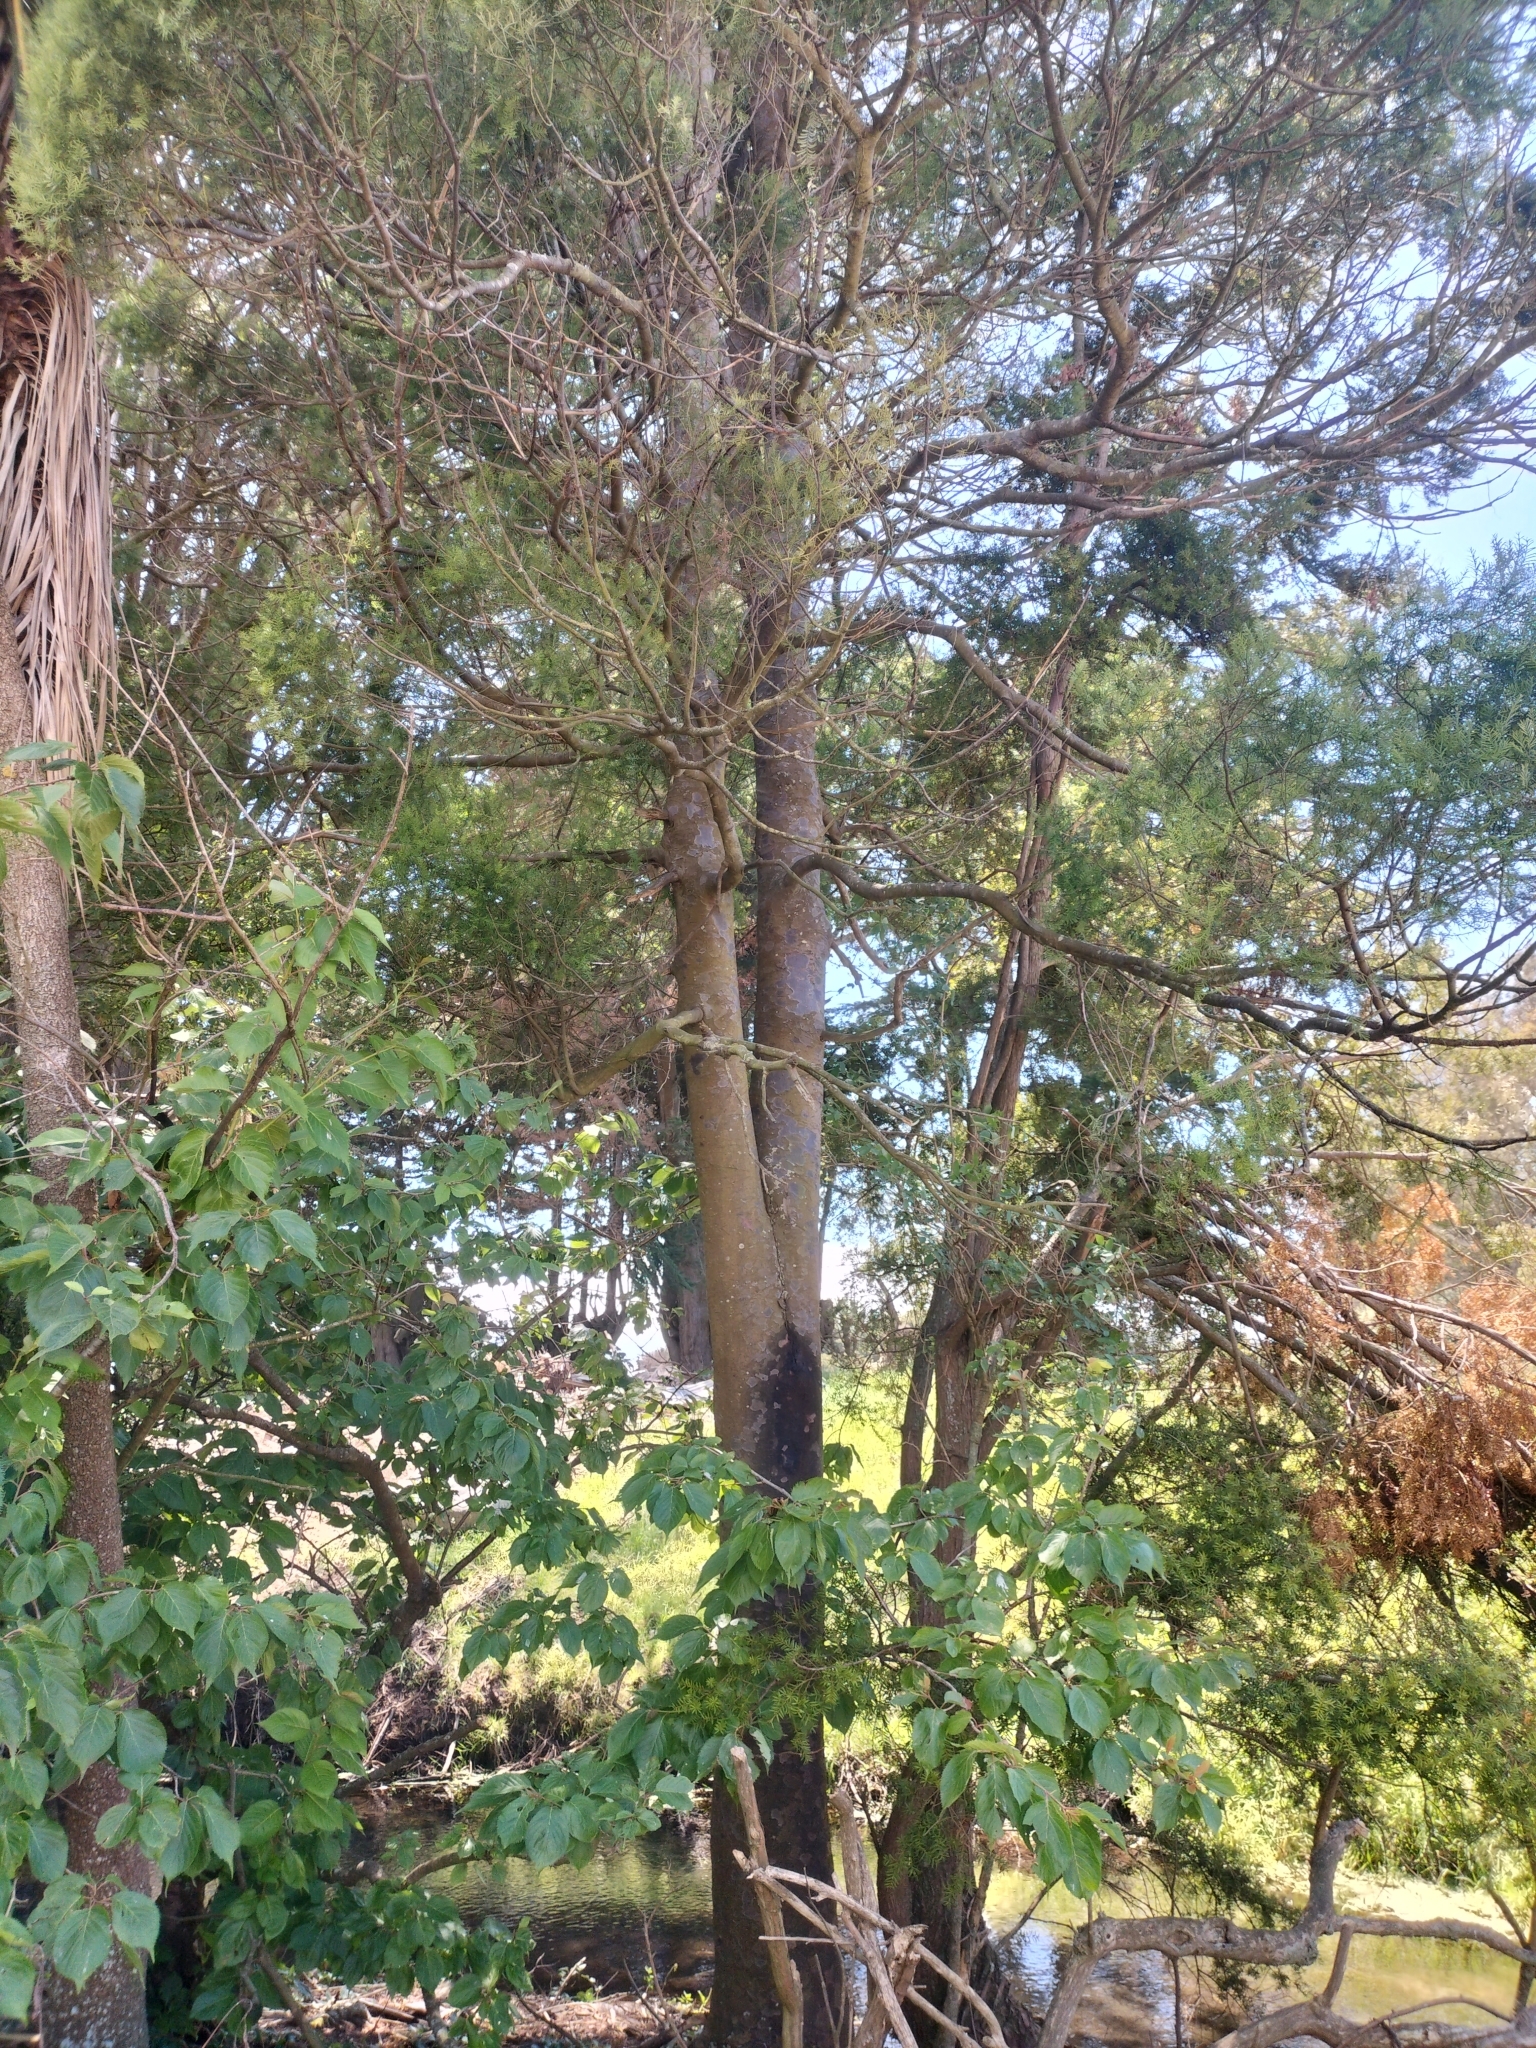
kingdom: Plantae
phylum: Tracheophyta
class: Pinopsida
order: Pinales
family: Podocarpaceae
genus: Prumnopitys
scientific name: Prumnopitys taxifolia
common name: Matai
